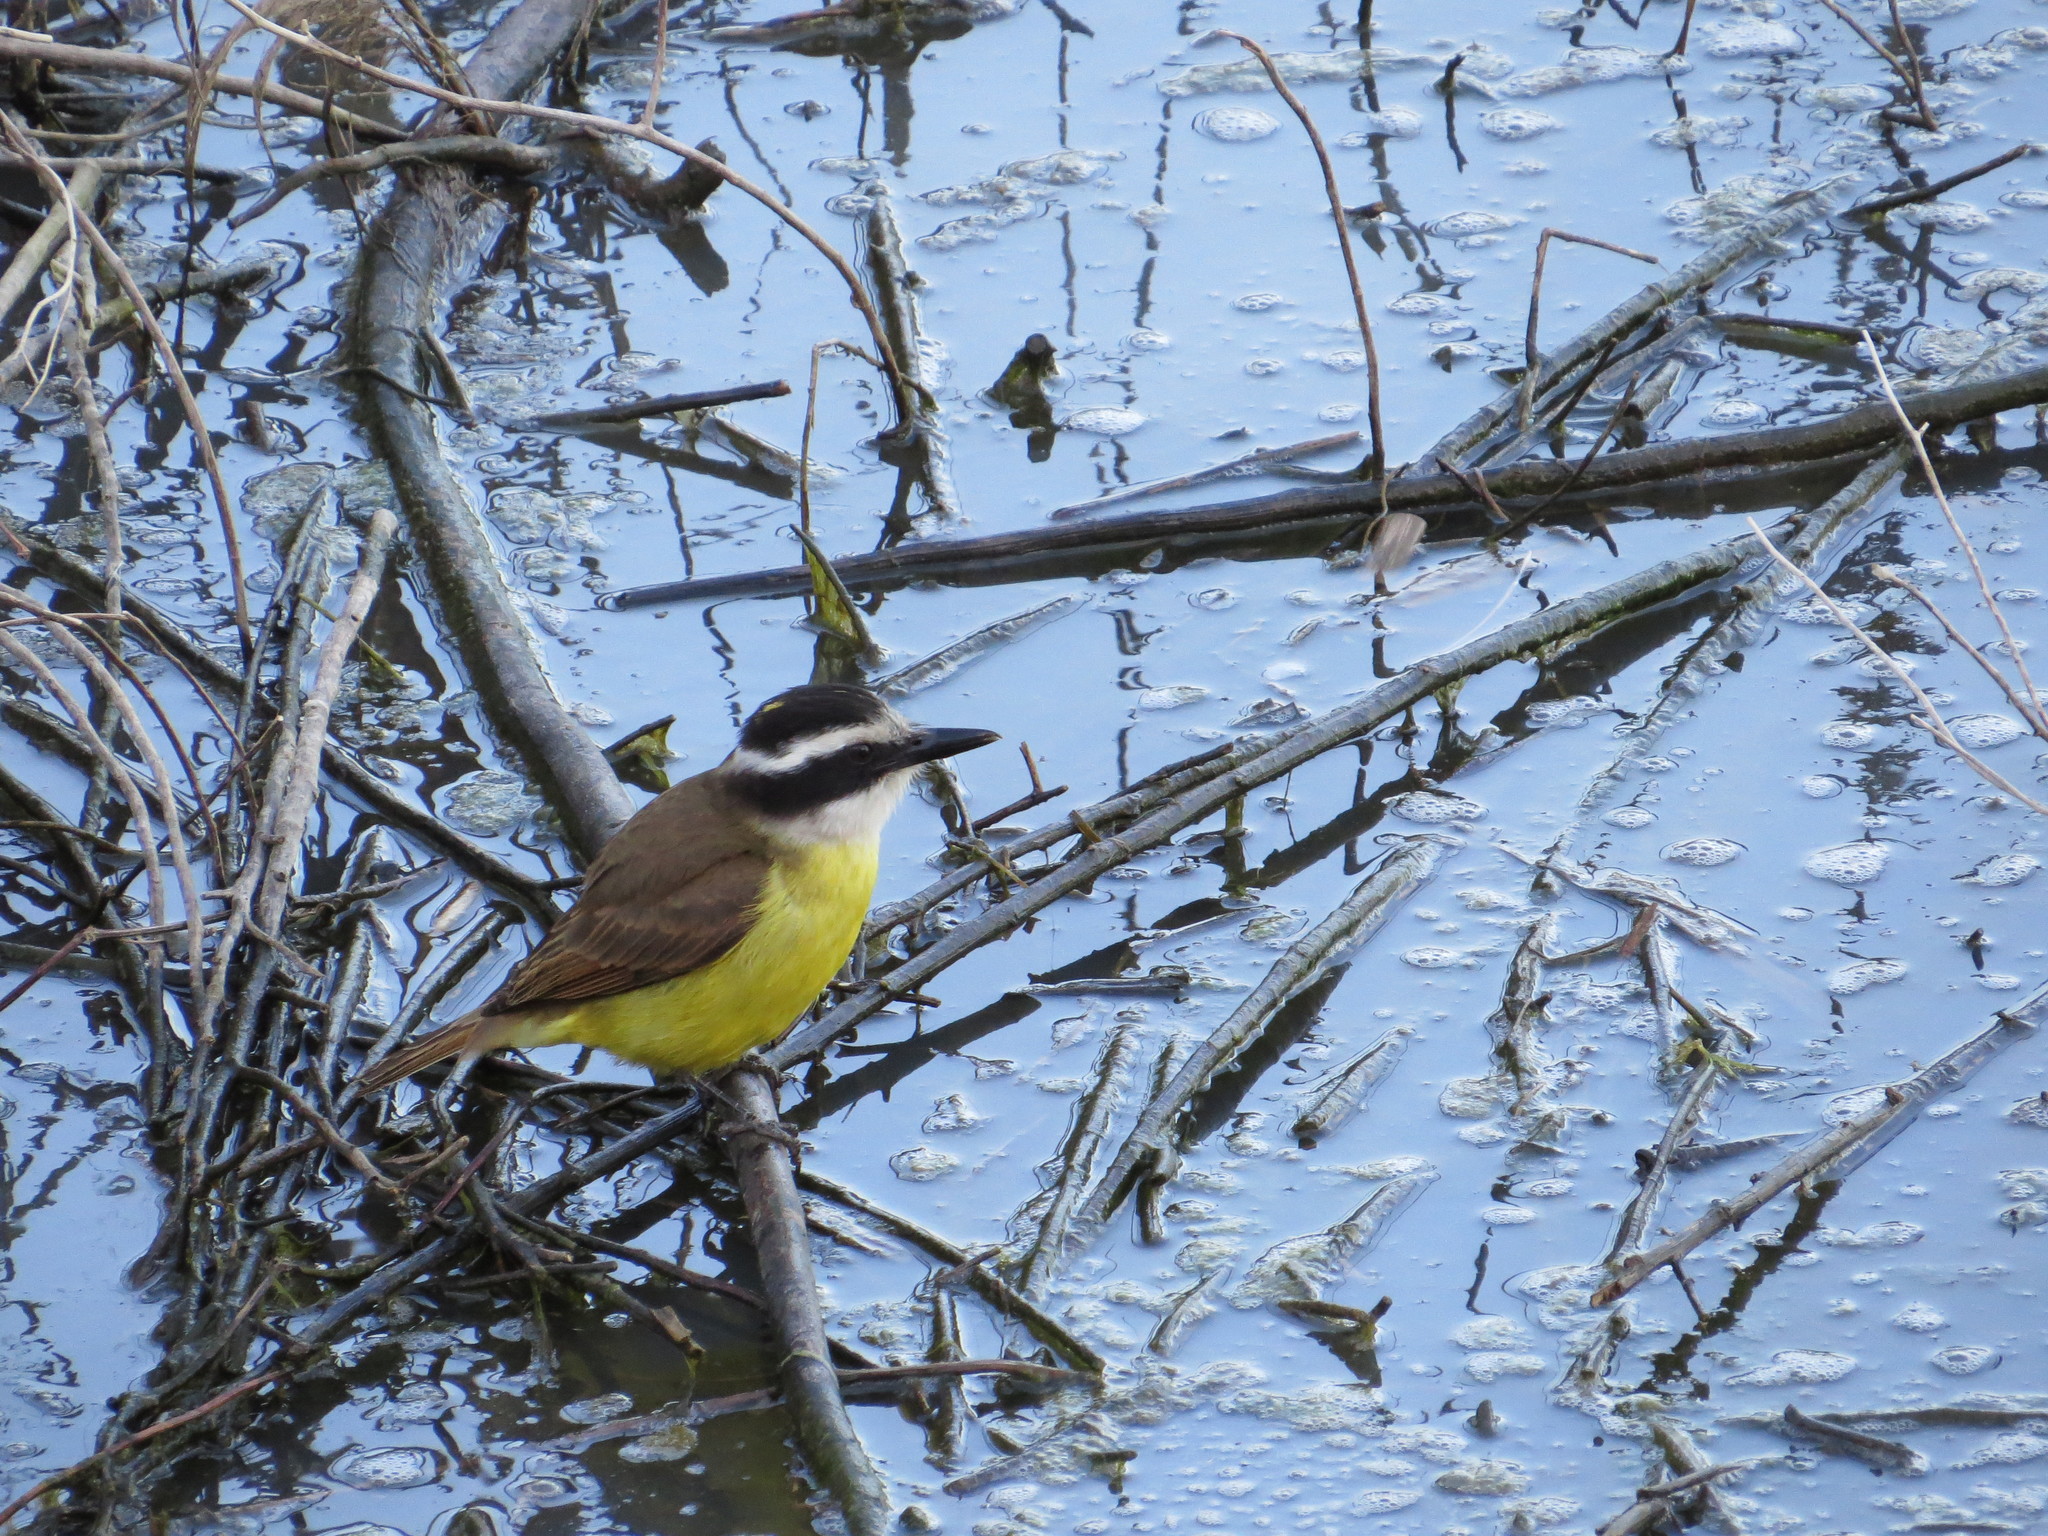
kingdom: Animalia
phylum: Chordata
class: Aves
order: Passeriformes
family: Tyrannidae
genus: Pitangus
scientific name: Pitangus sulphuratus
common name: Great kiskadee
